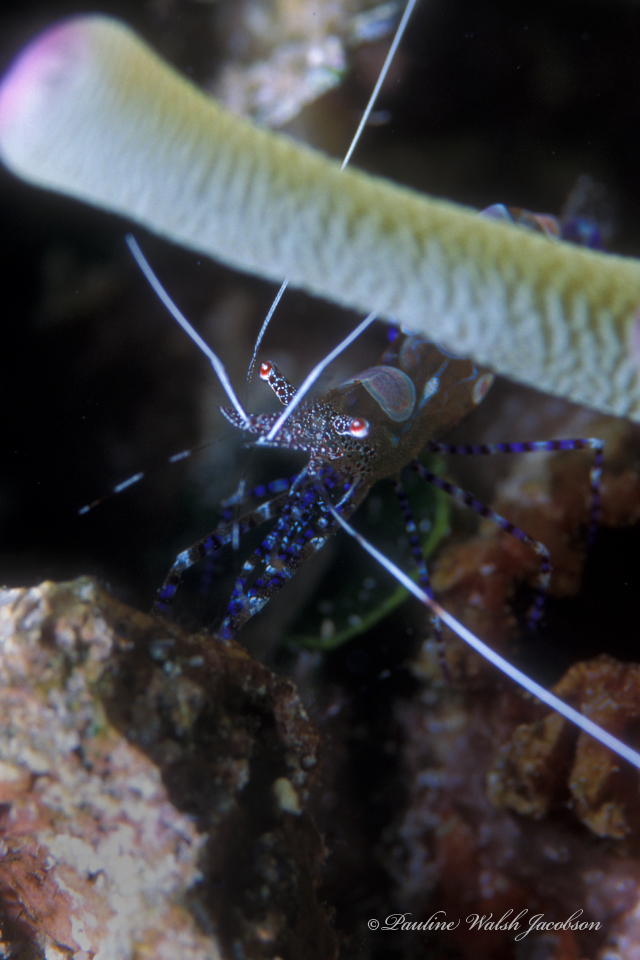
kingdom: Animalia
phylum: Arthropoda
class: Malacostraca
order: Decapoda
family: Palaemonidae
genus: Periclimenes
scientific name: Periclimenes yucatanicus
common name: Spotted cleaning shrimp
